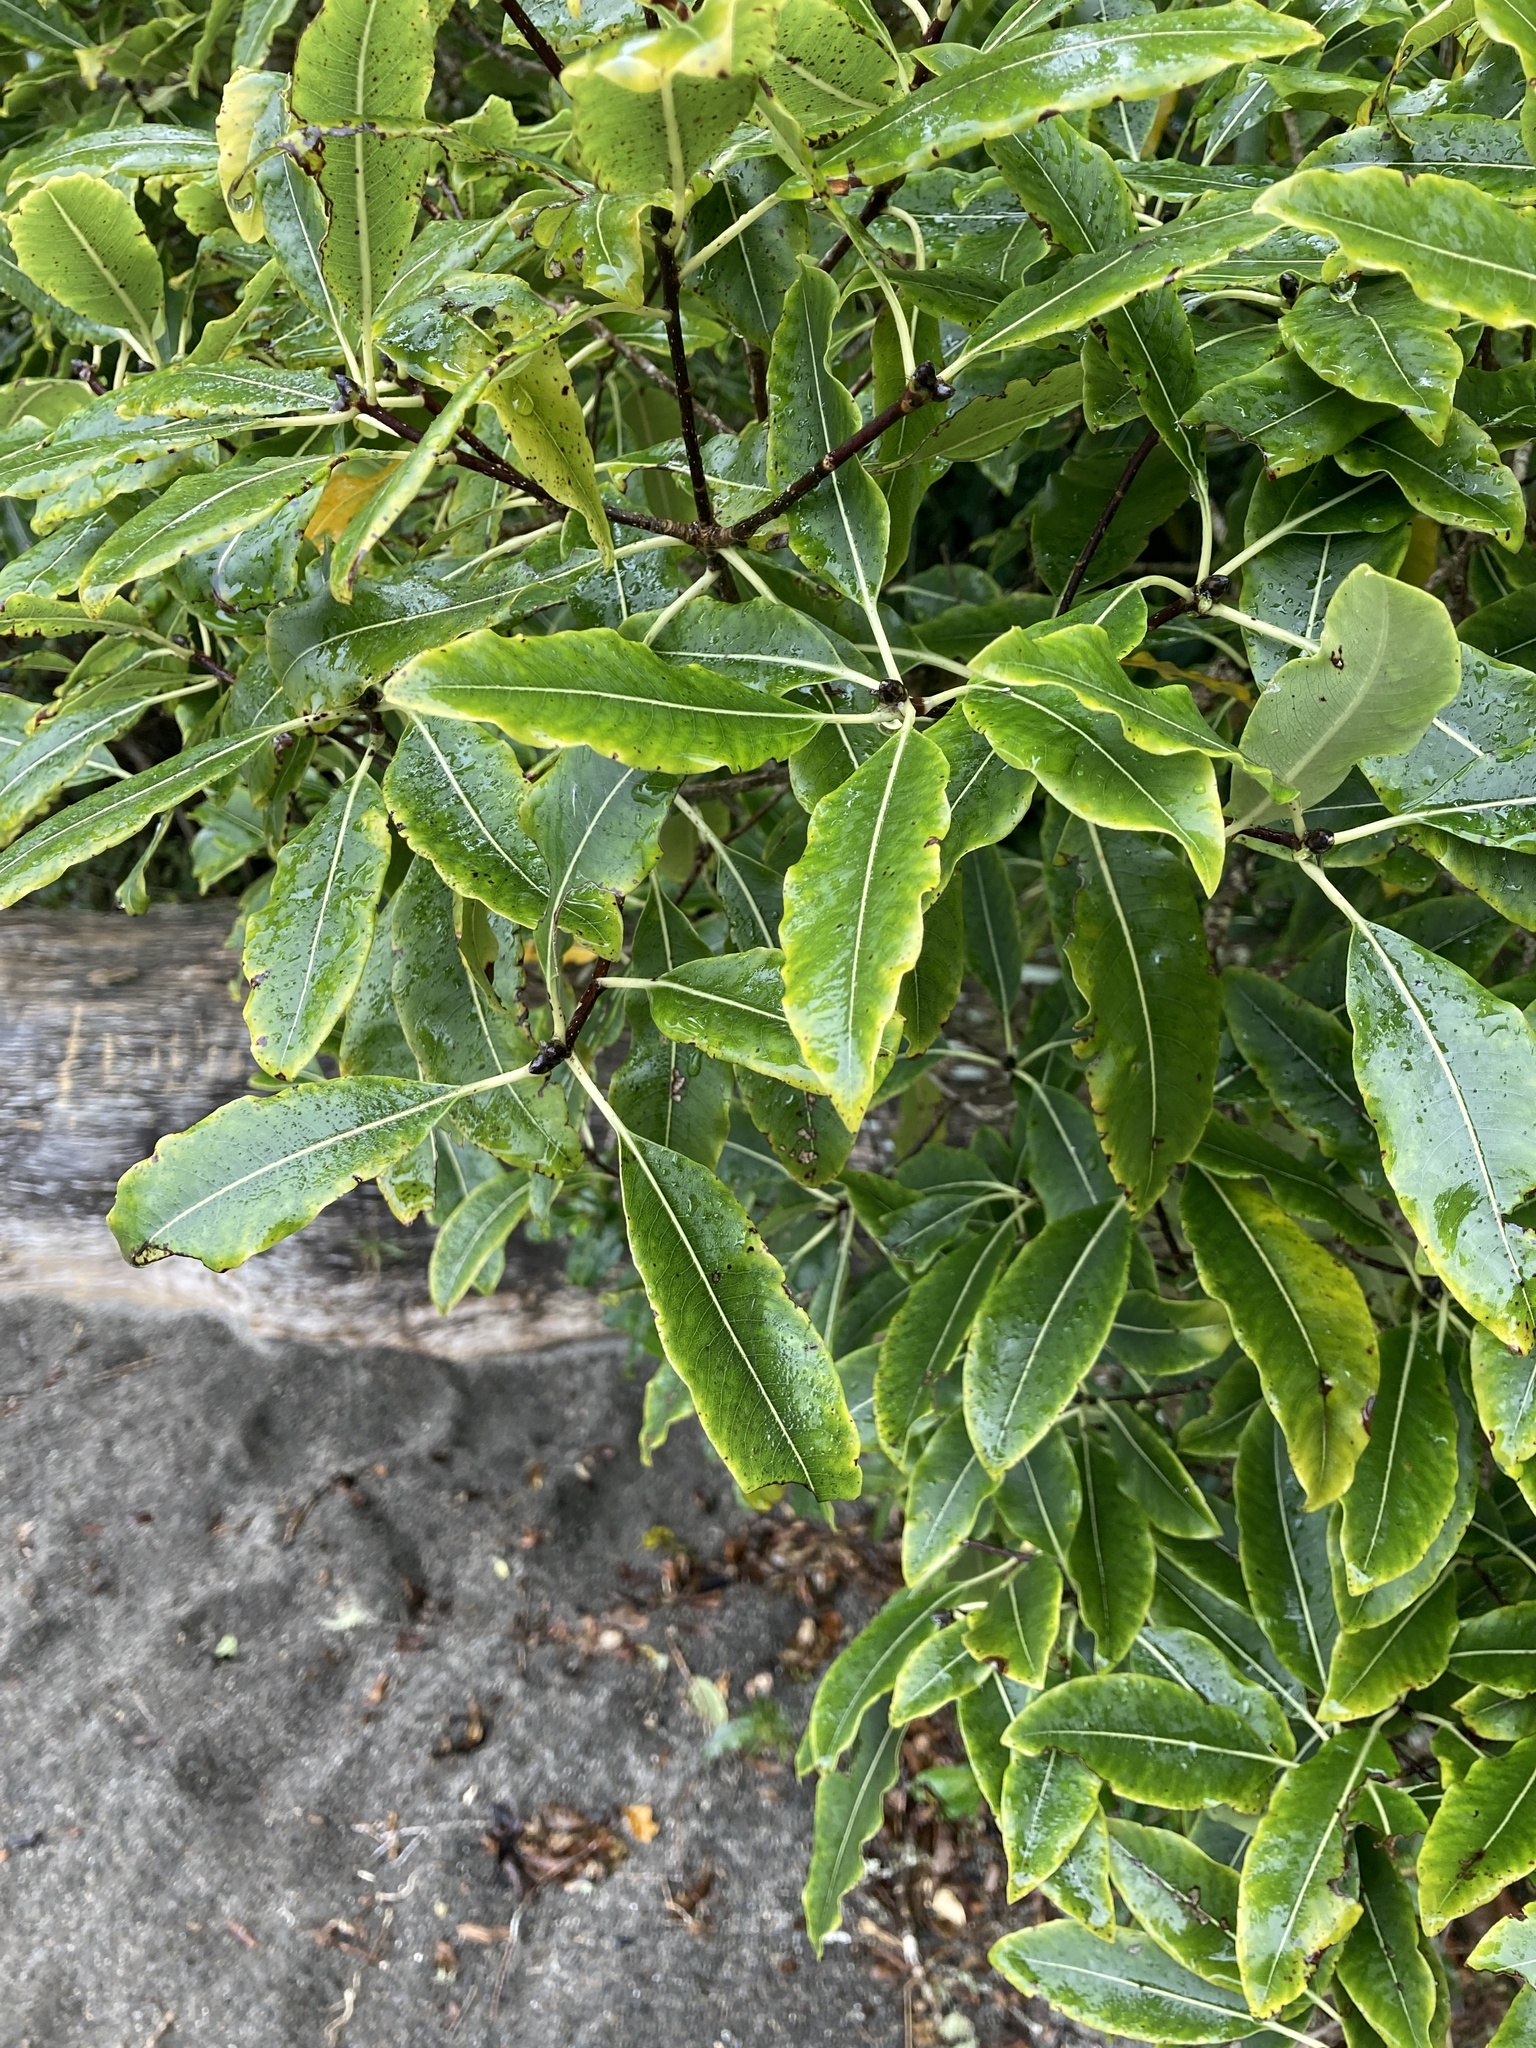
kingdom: Plantae
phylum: Tracheophyta
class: Magnoliopsida
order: Apiales
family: Pittosporaceae
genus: Pittosporum
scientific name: Pittosporum eugenioides
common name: Lemonwood
